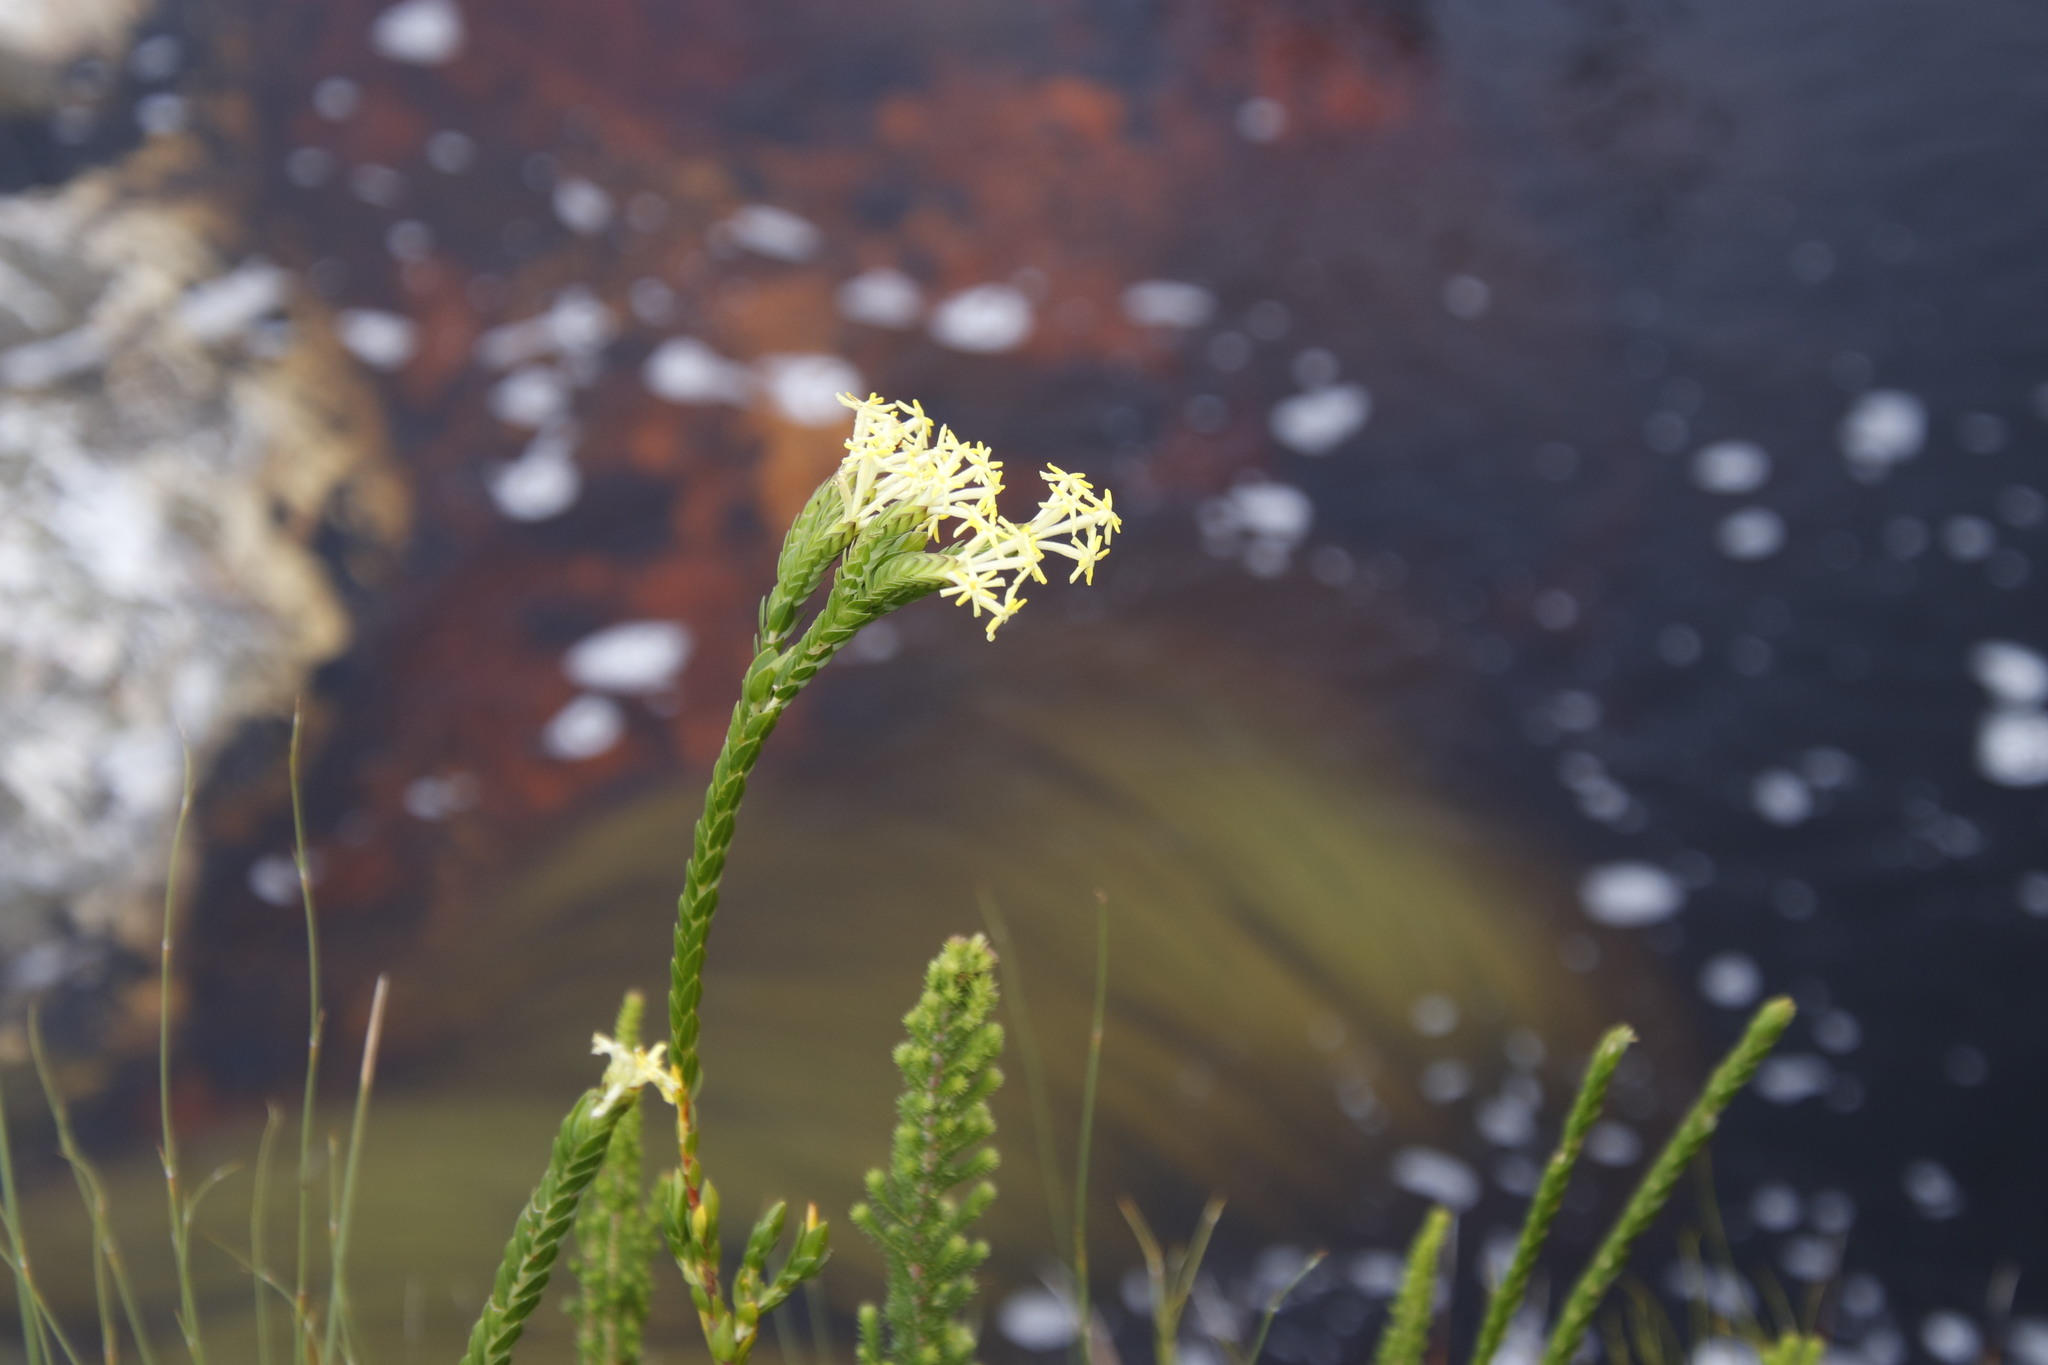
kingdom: Plantae
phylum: Tracheophyta
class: Magnoliopsida
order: Malvales
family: Thymelaeaceae
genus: Gnidia
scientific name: Gnidia oppositifolia
